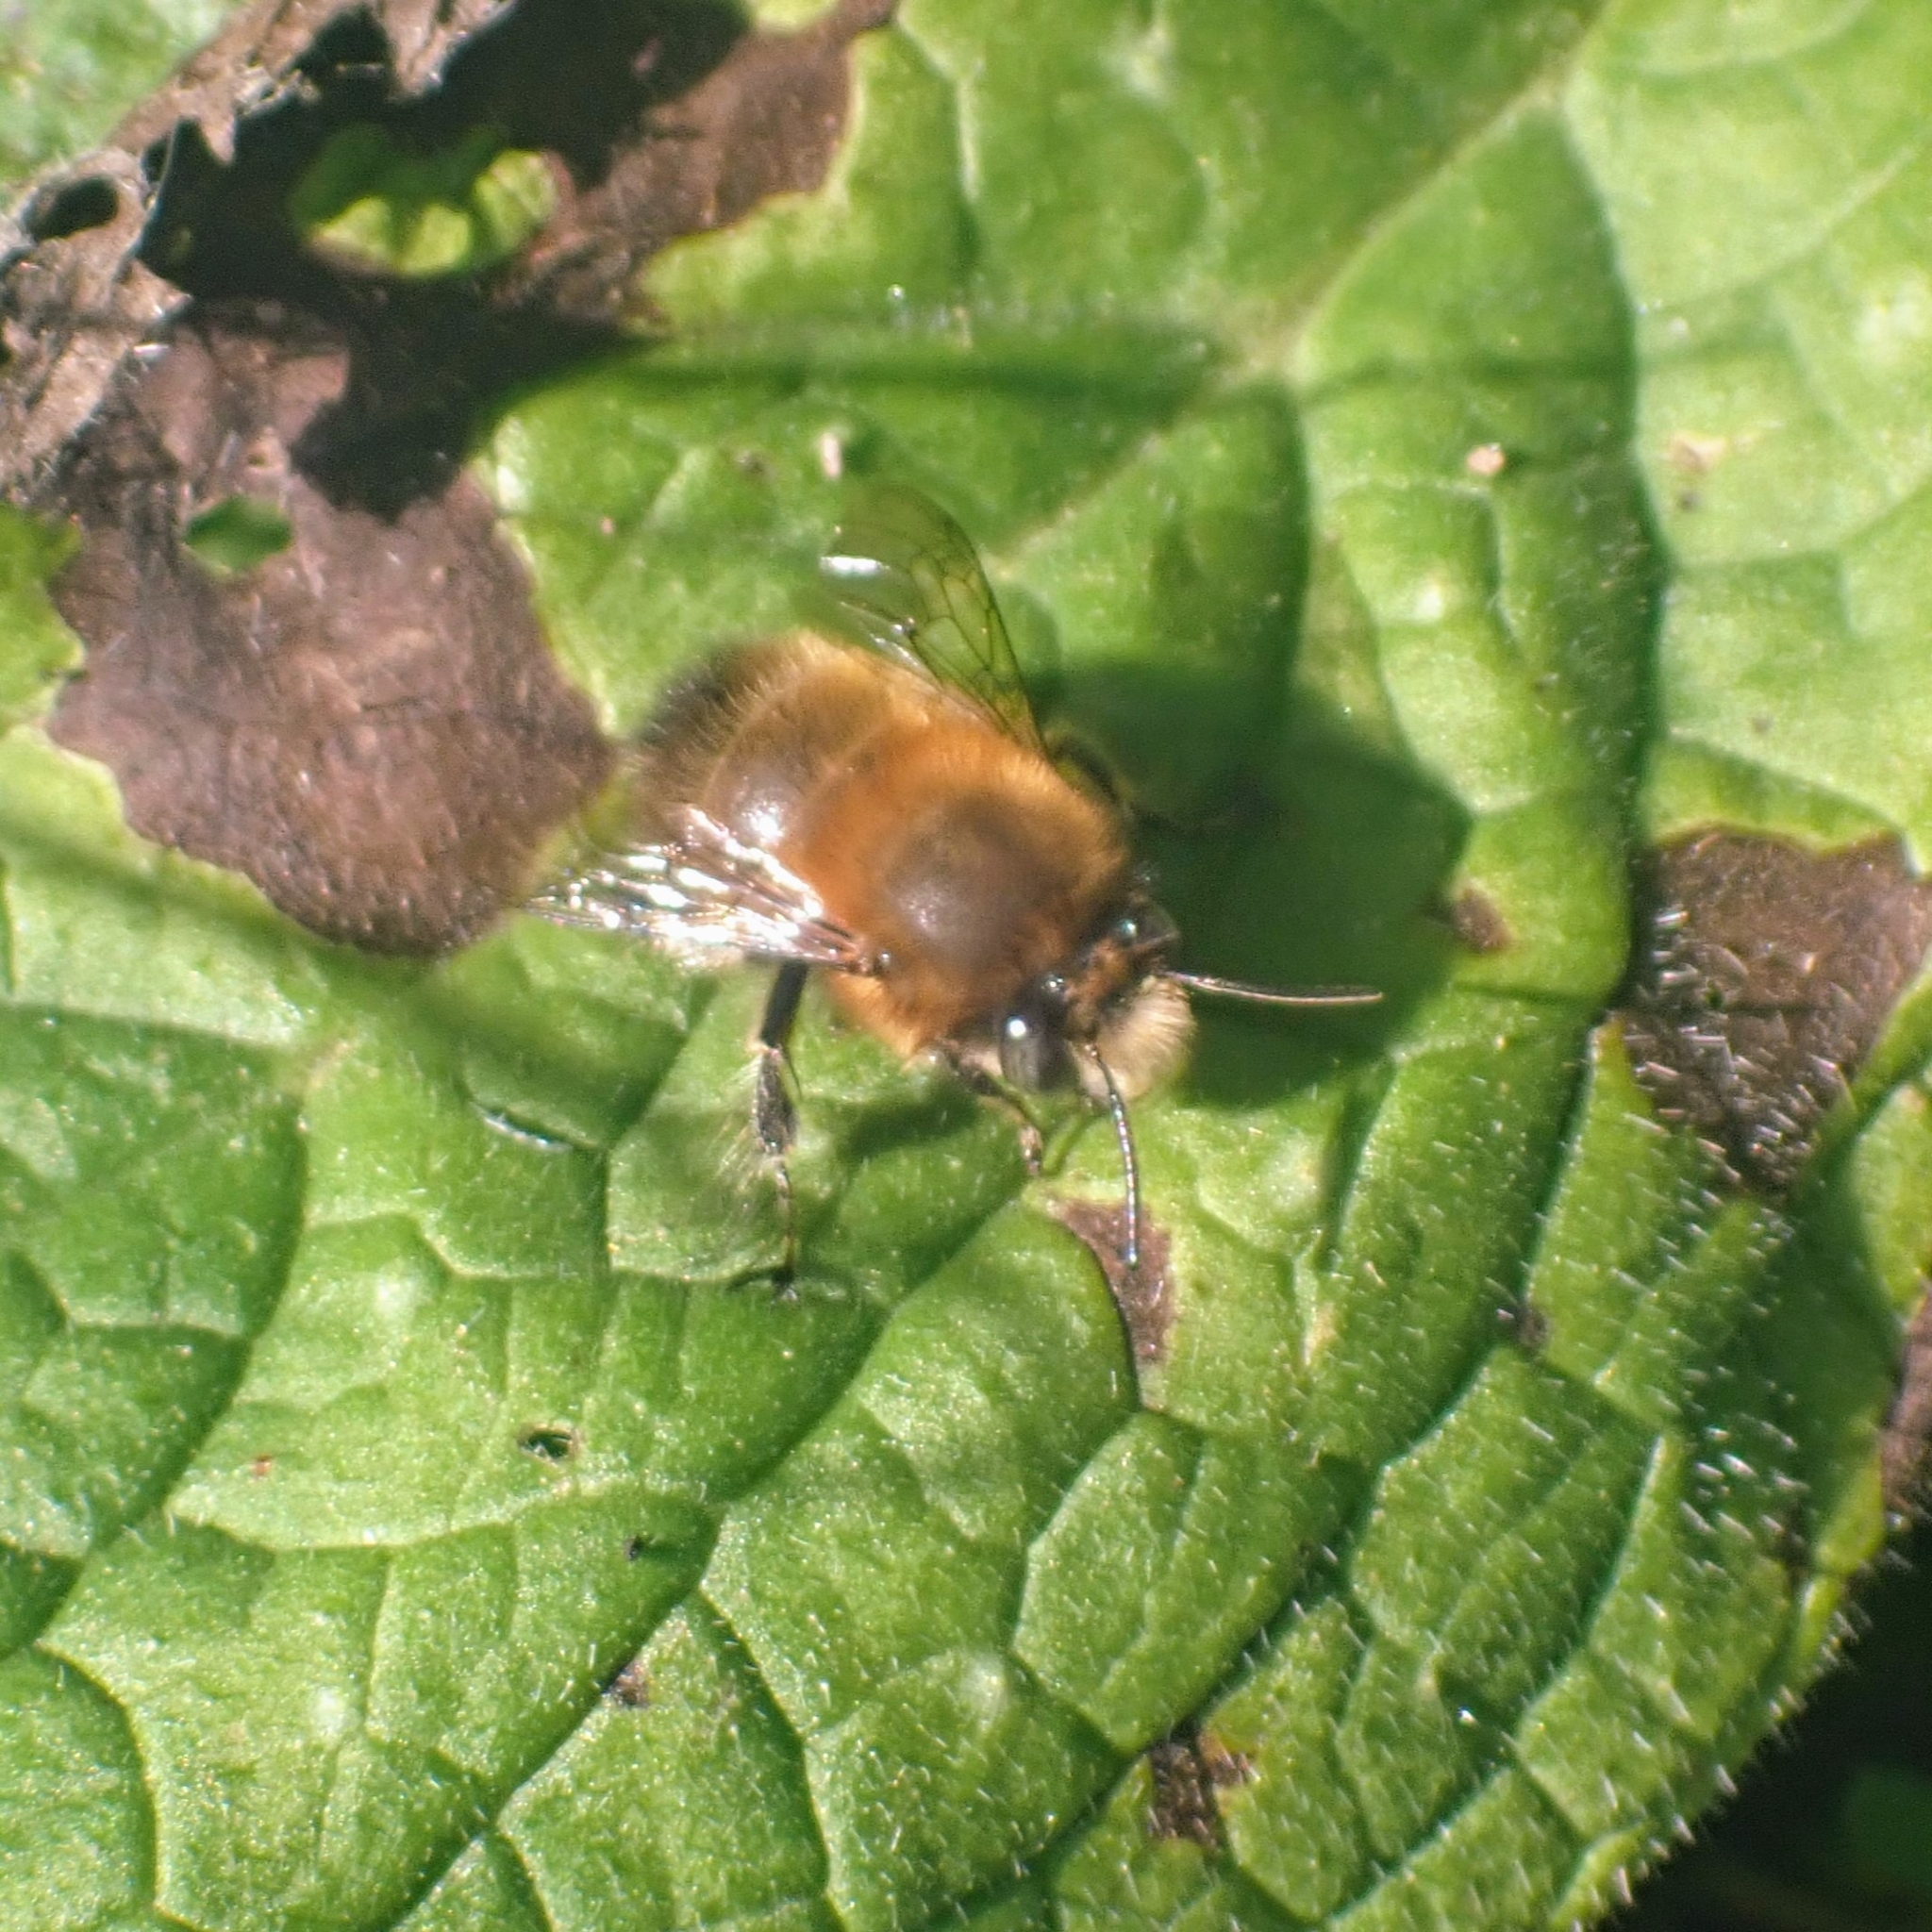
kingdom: Animalia
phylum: Arthropoda
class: Insecta
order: Hymenoptera
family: Apidae
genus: Anthophora
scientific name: Anthophora plumipes
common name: Hairy-footed flower bee
